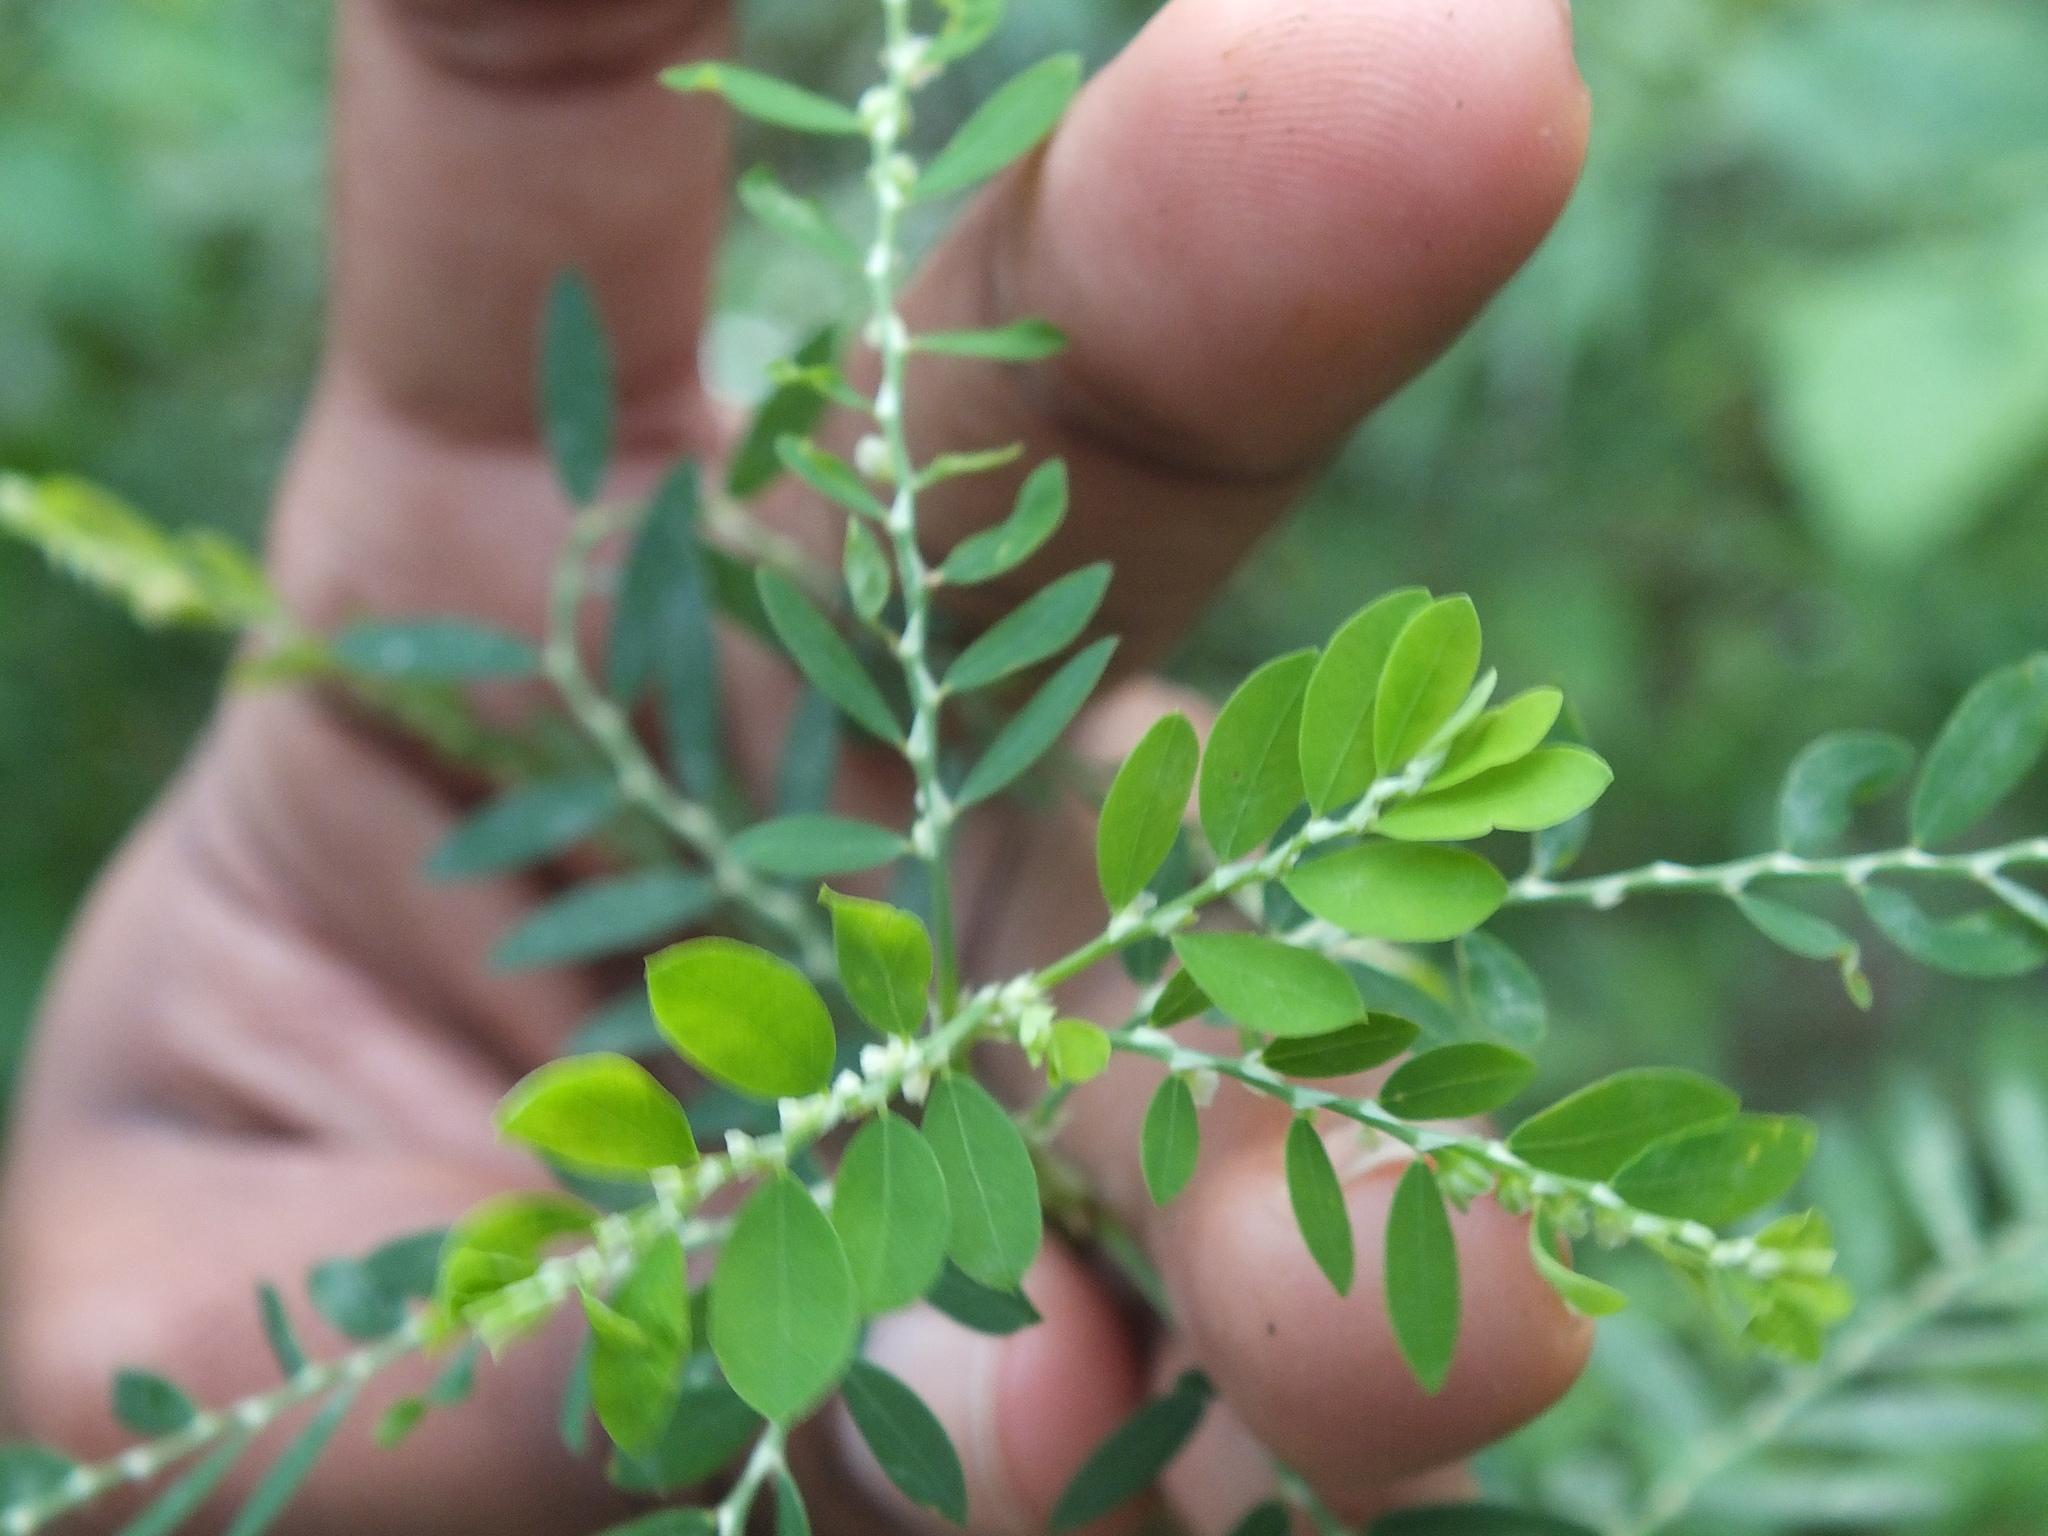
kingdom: Plantae
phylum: Tracheophyta
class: Magnoliopsida
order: Malpighiales
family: Phyllanthaceae
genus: Phyllanthus
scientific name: Phyllanthus debilis
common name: Niruri
